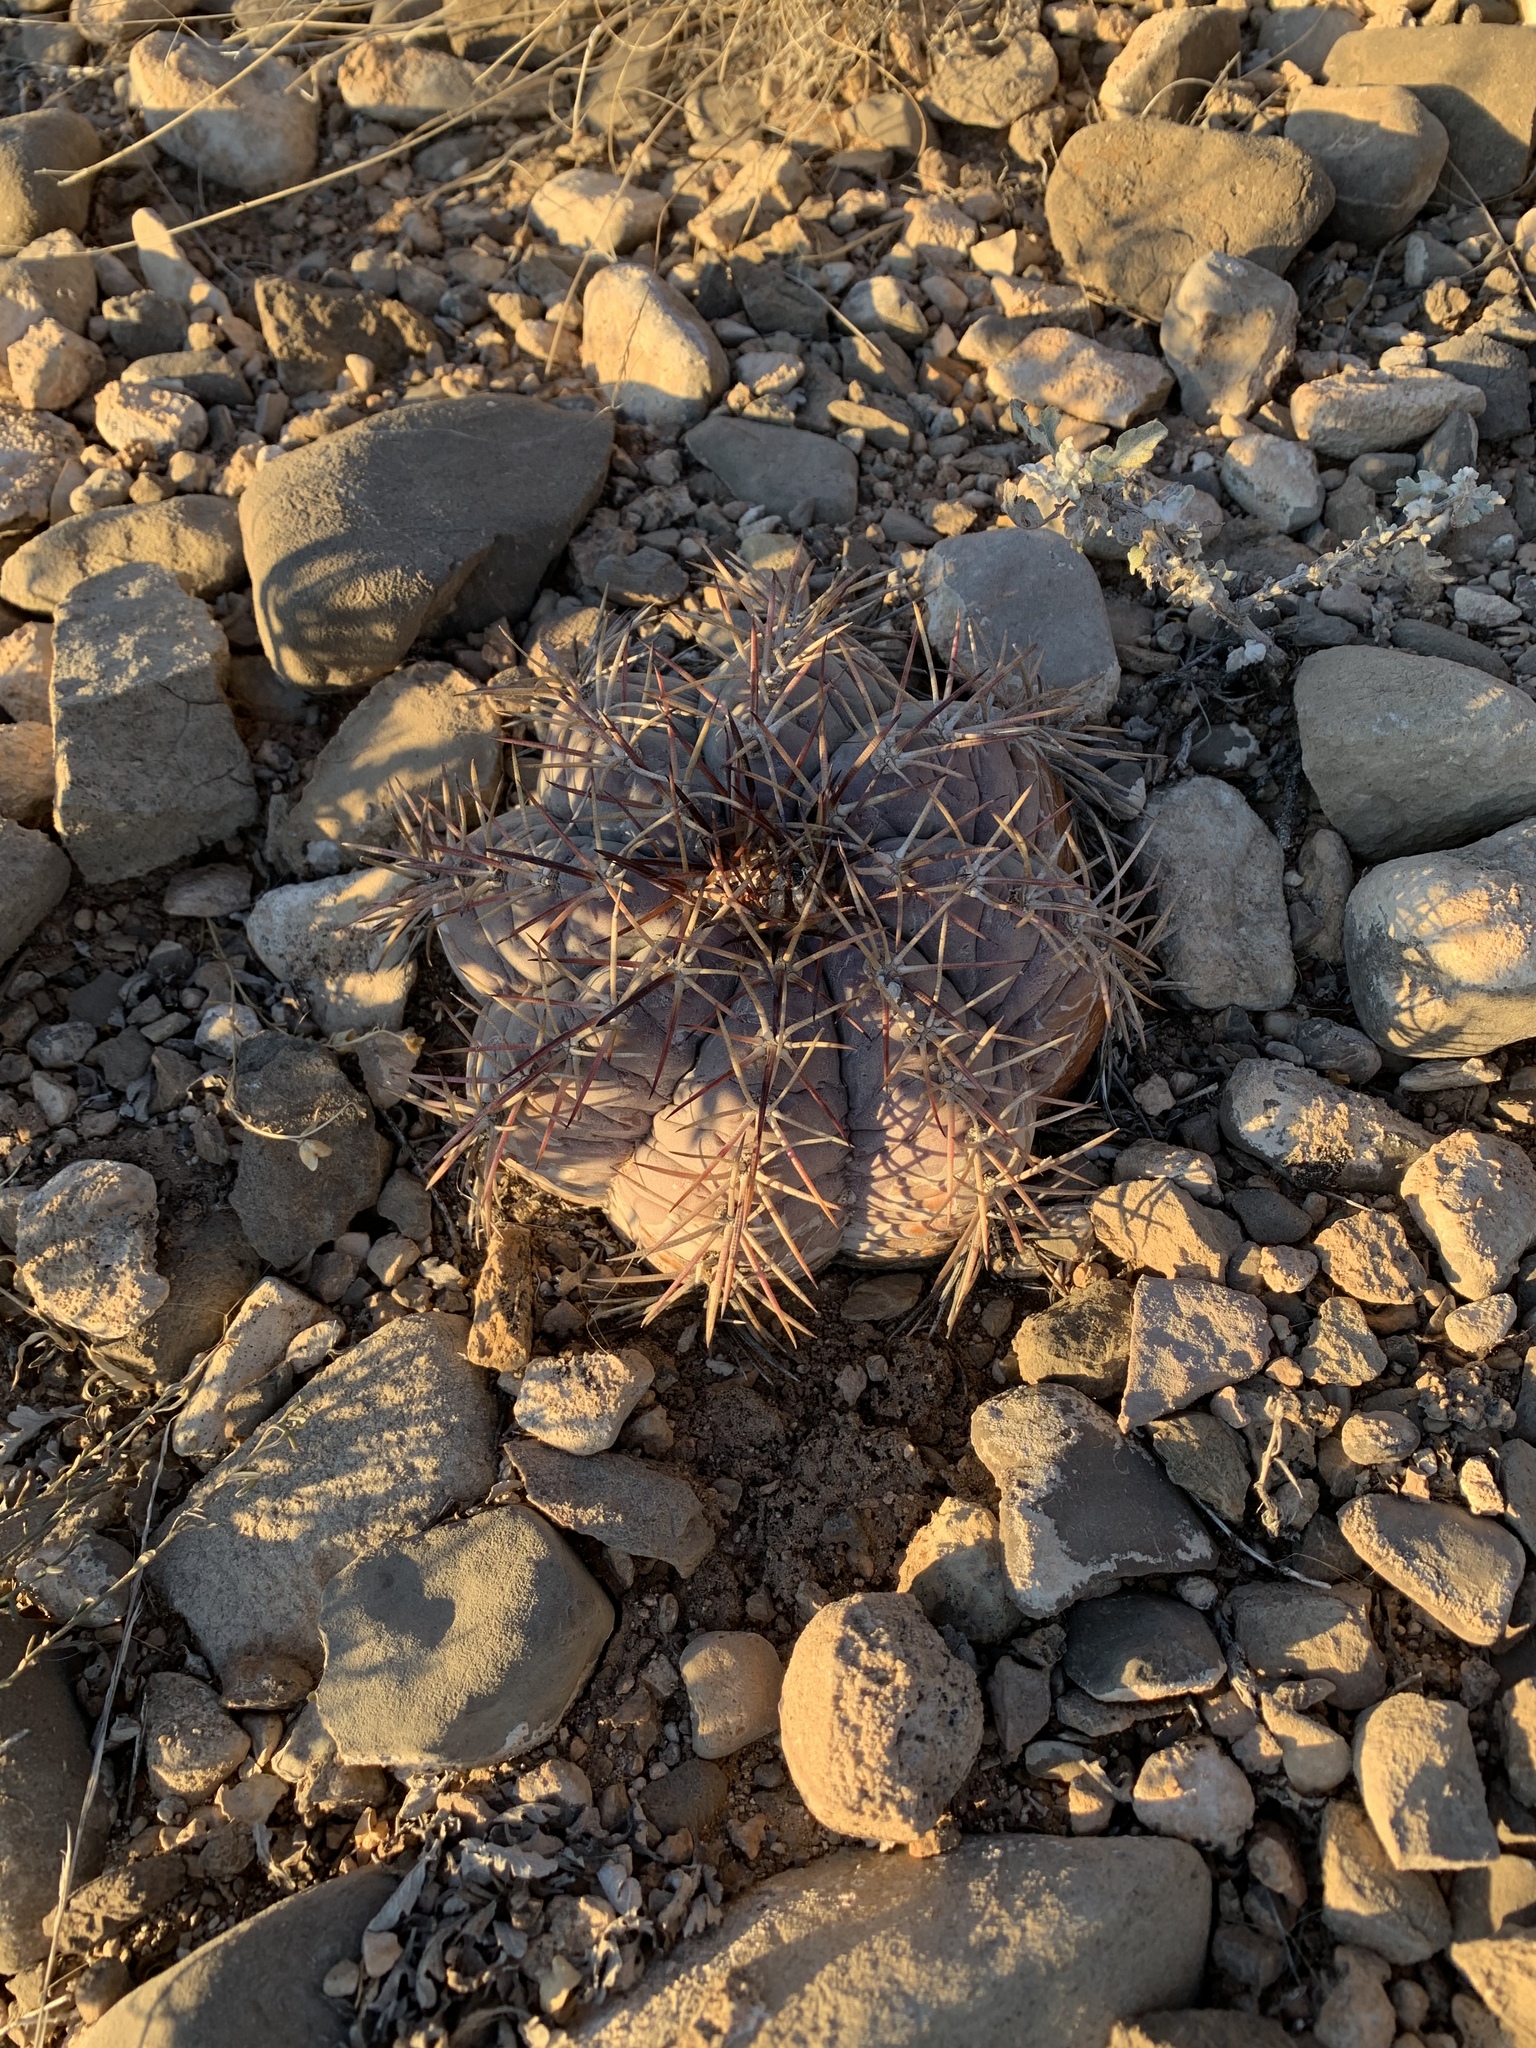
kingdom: Plantae
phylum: Tracheophyta
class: Magnoliopsida
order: Caryophyllales
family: Cactaceae
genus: Echinocactus
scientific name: Echinocactus horizonthalonius
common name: Devilshead
